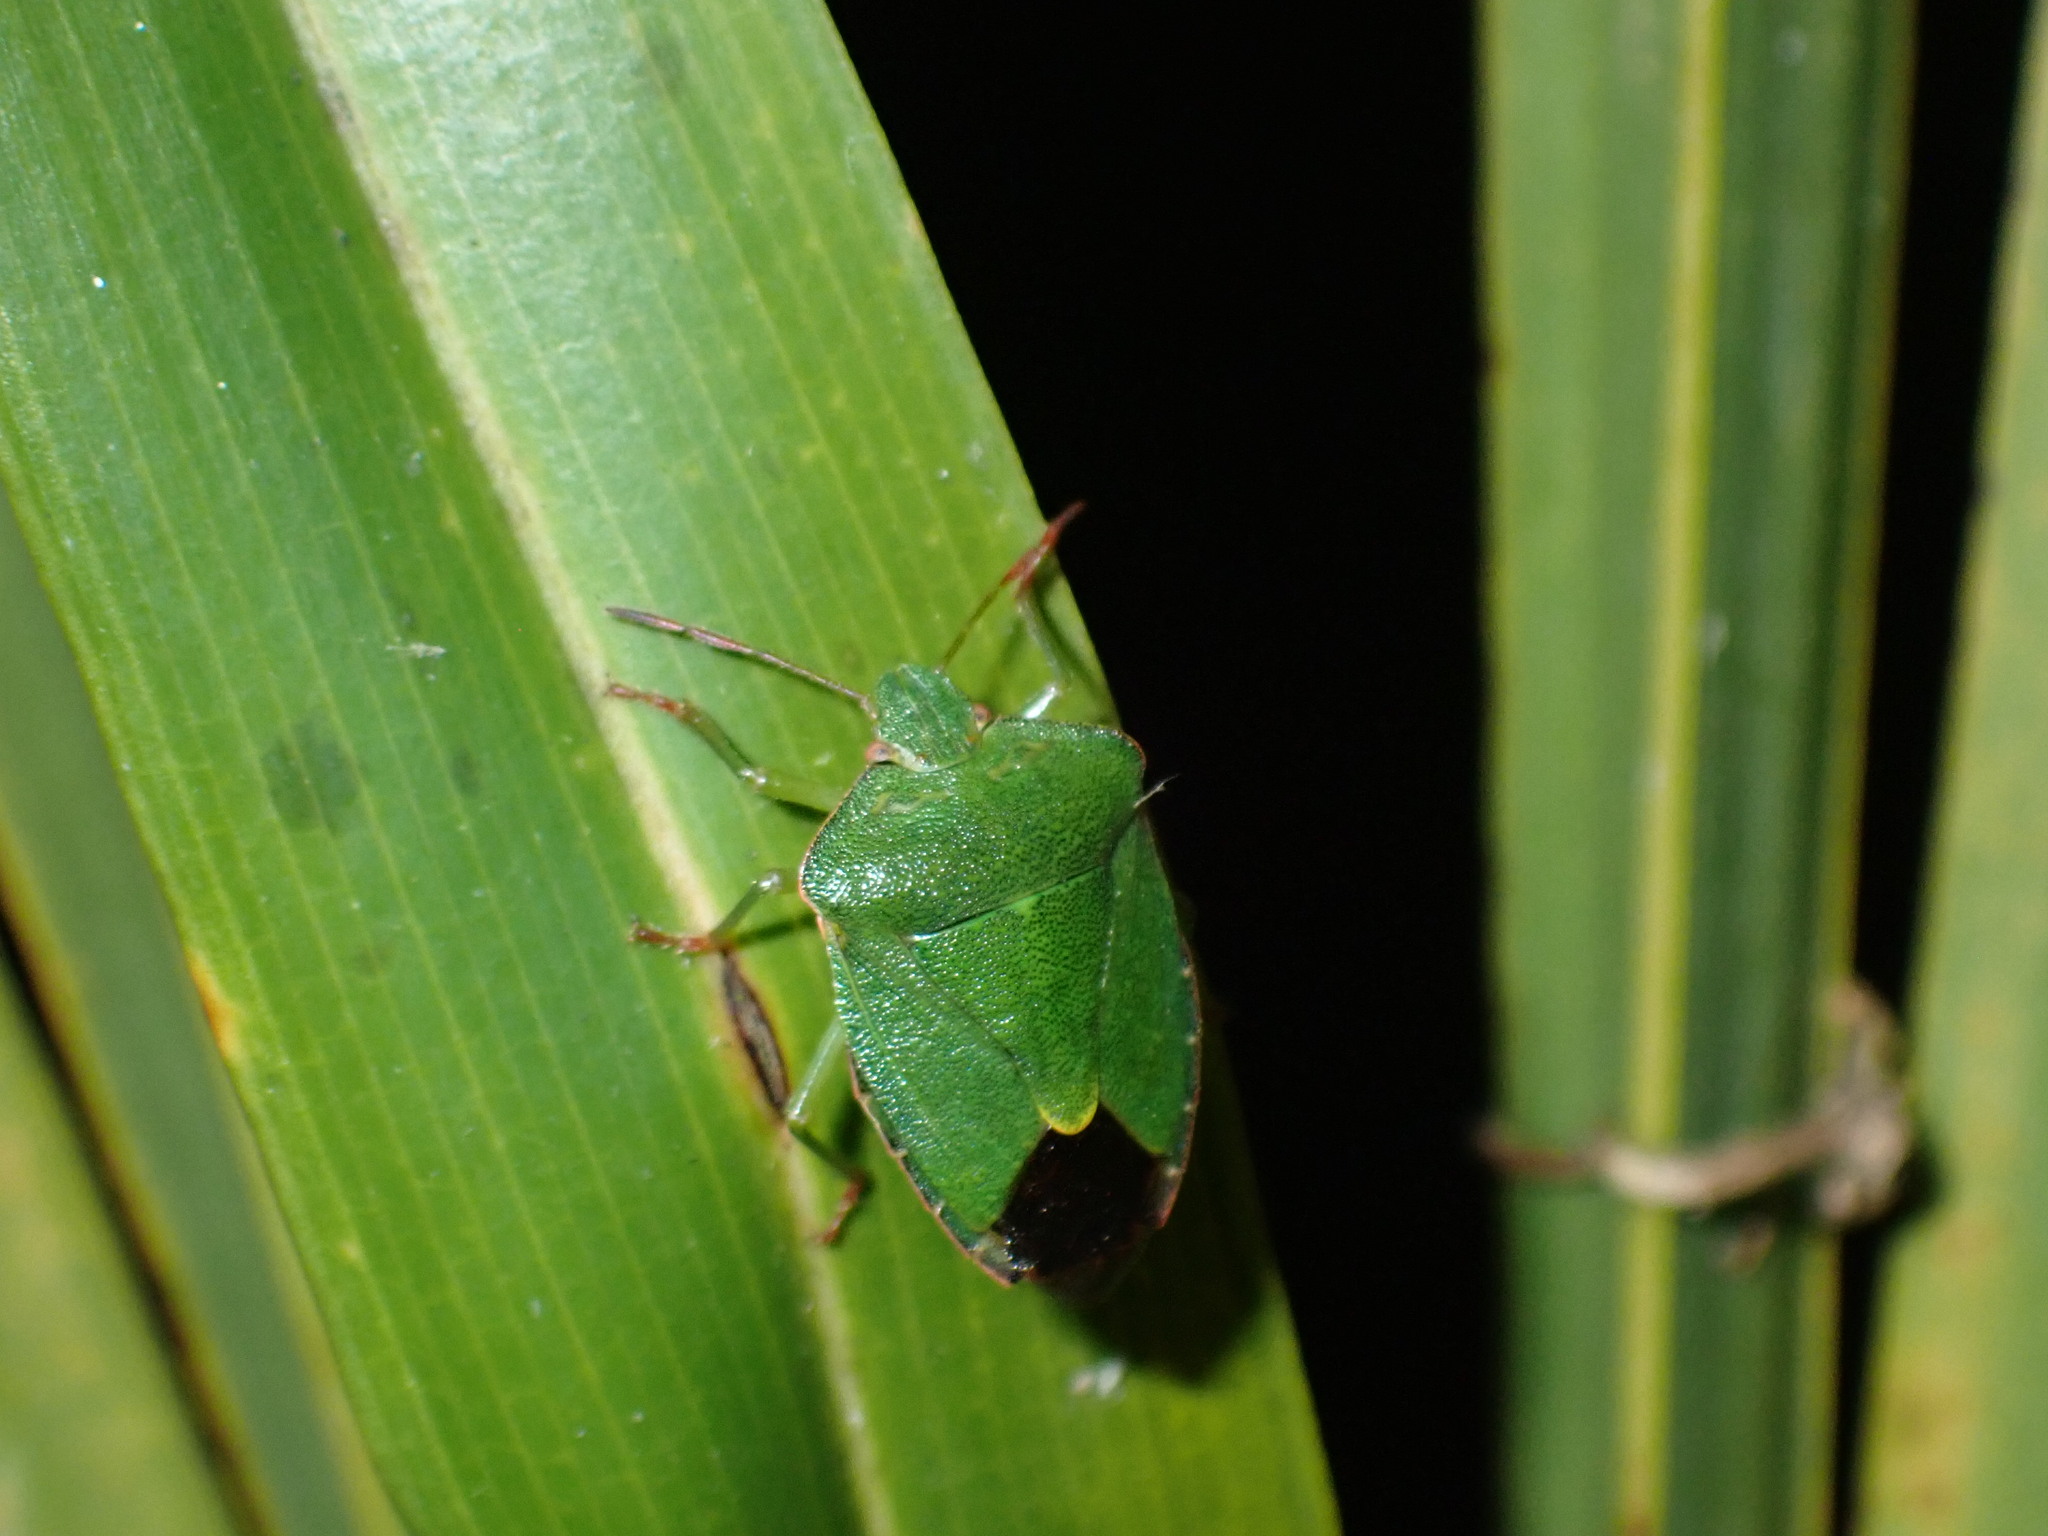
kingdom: Animalia
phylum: Arthropoda
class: Insecta
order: Hemiptera
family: Pentatomidae
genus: Palomena
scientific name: Palomena prasina
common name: Green shieldbug
